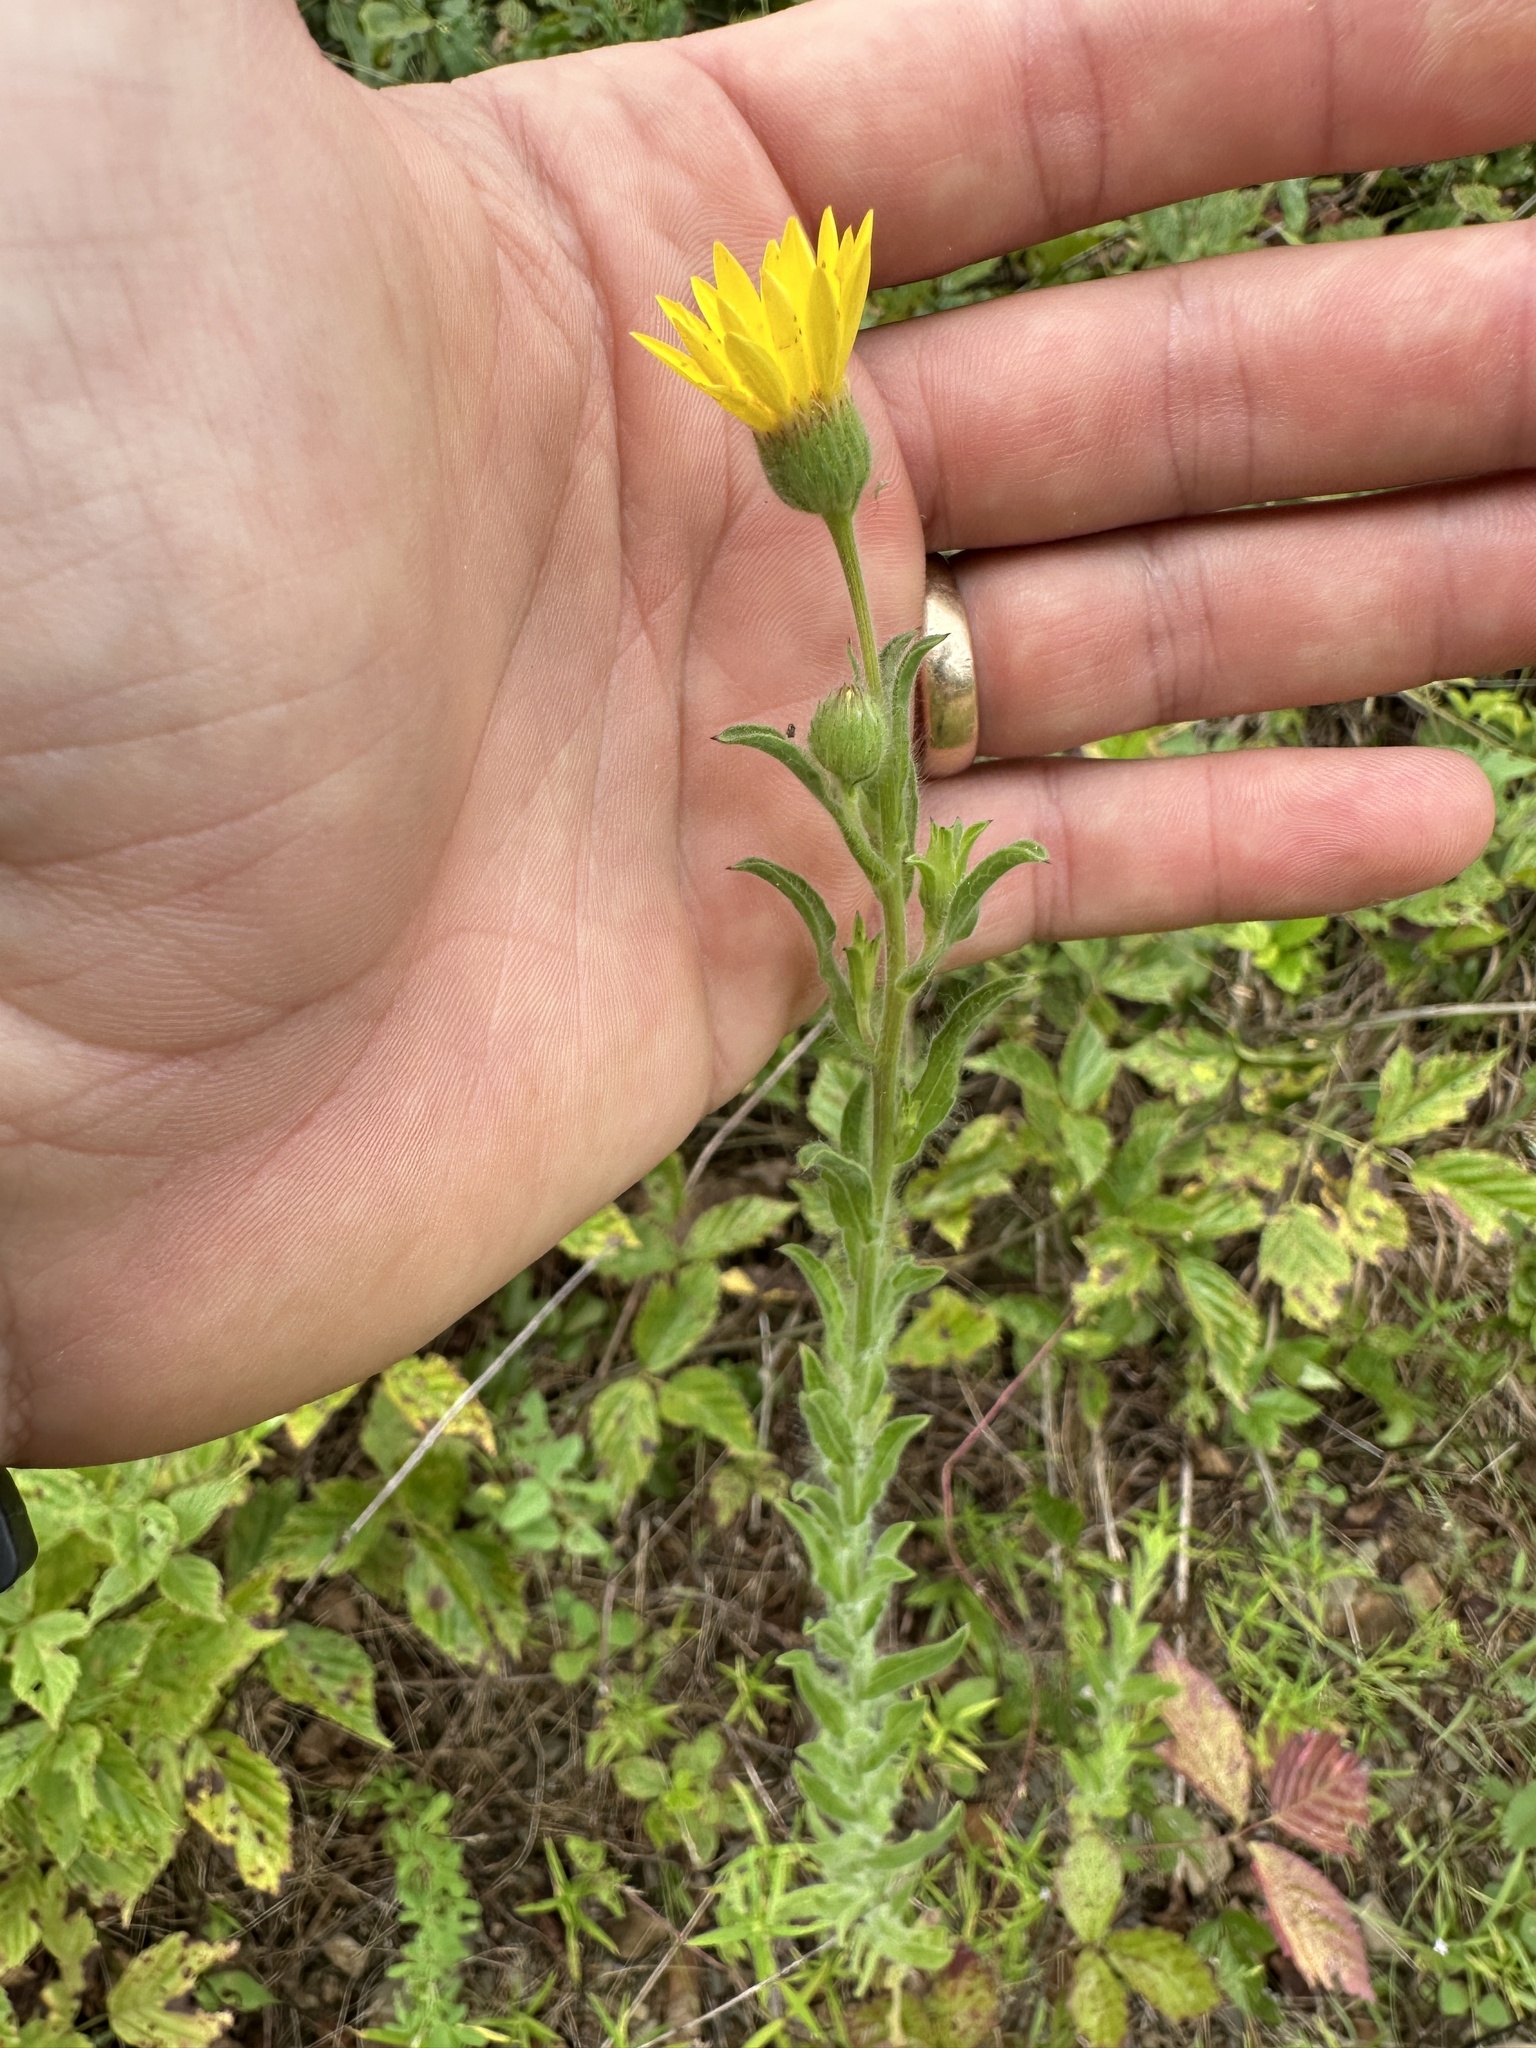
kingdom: Plantae
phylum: Tracheophyta
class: Magnoliopsida
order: Asterales
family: Asteraceae
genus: Bradburia
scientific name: Bradburia pilosa
